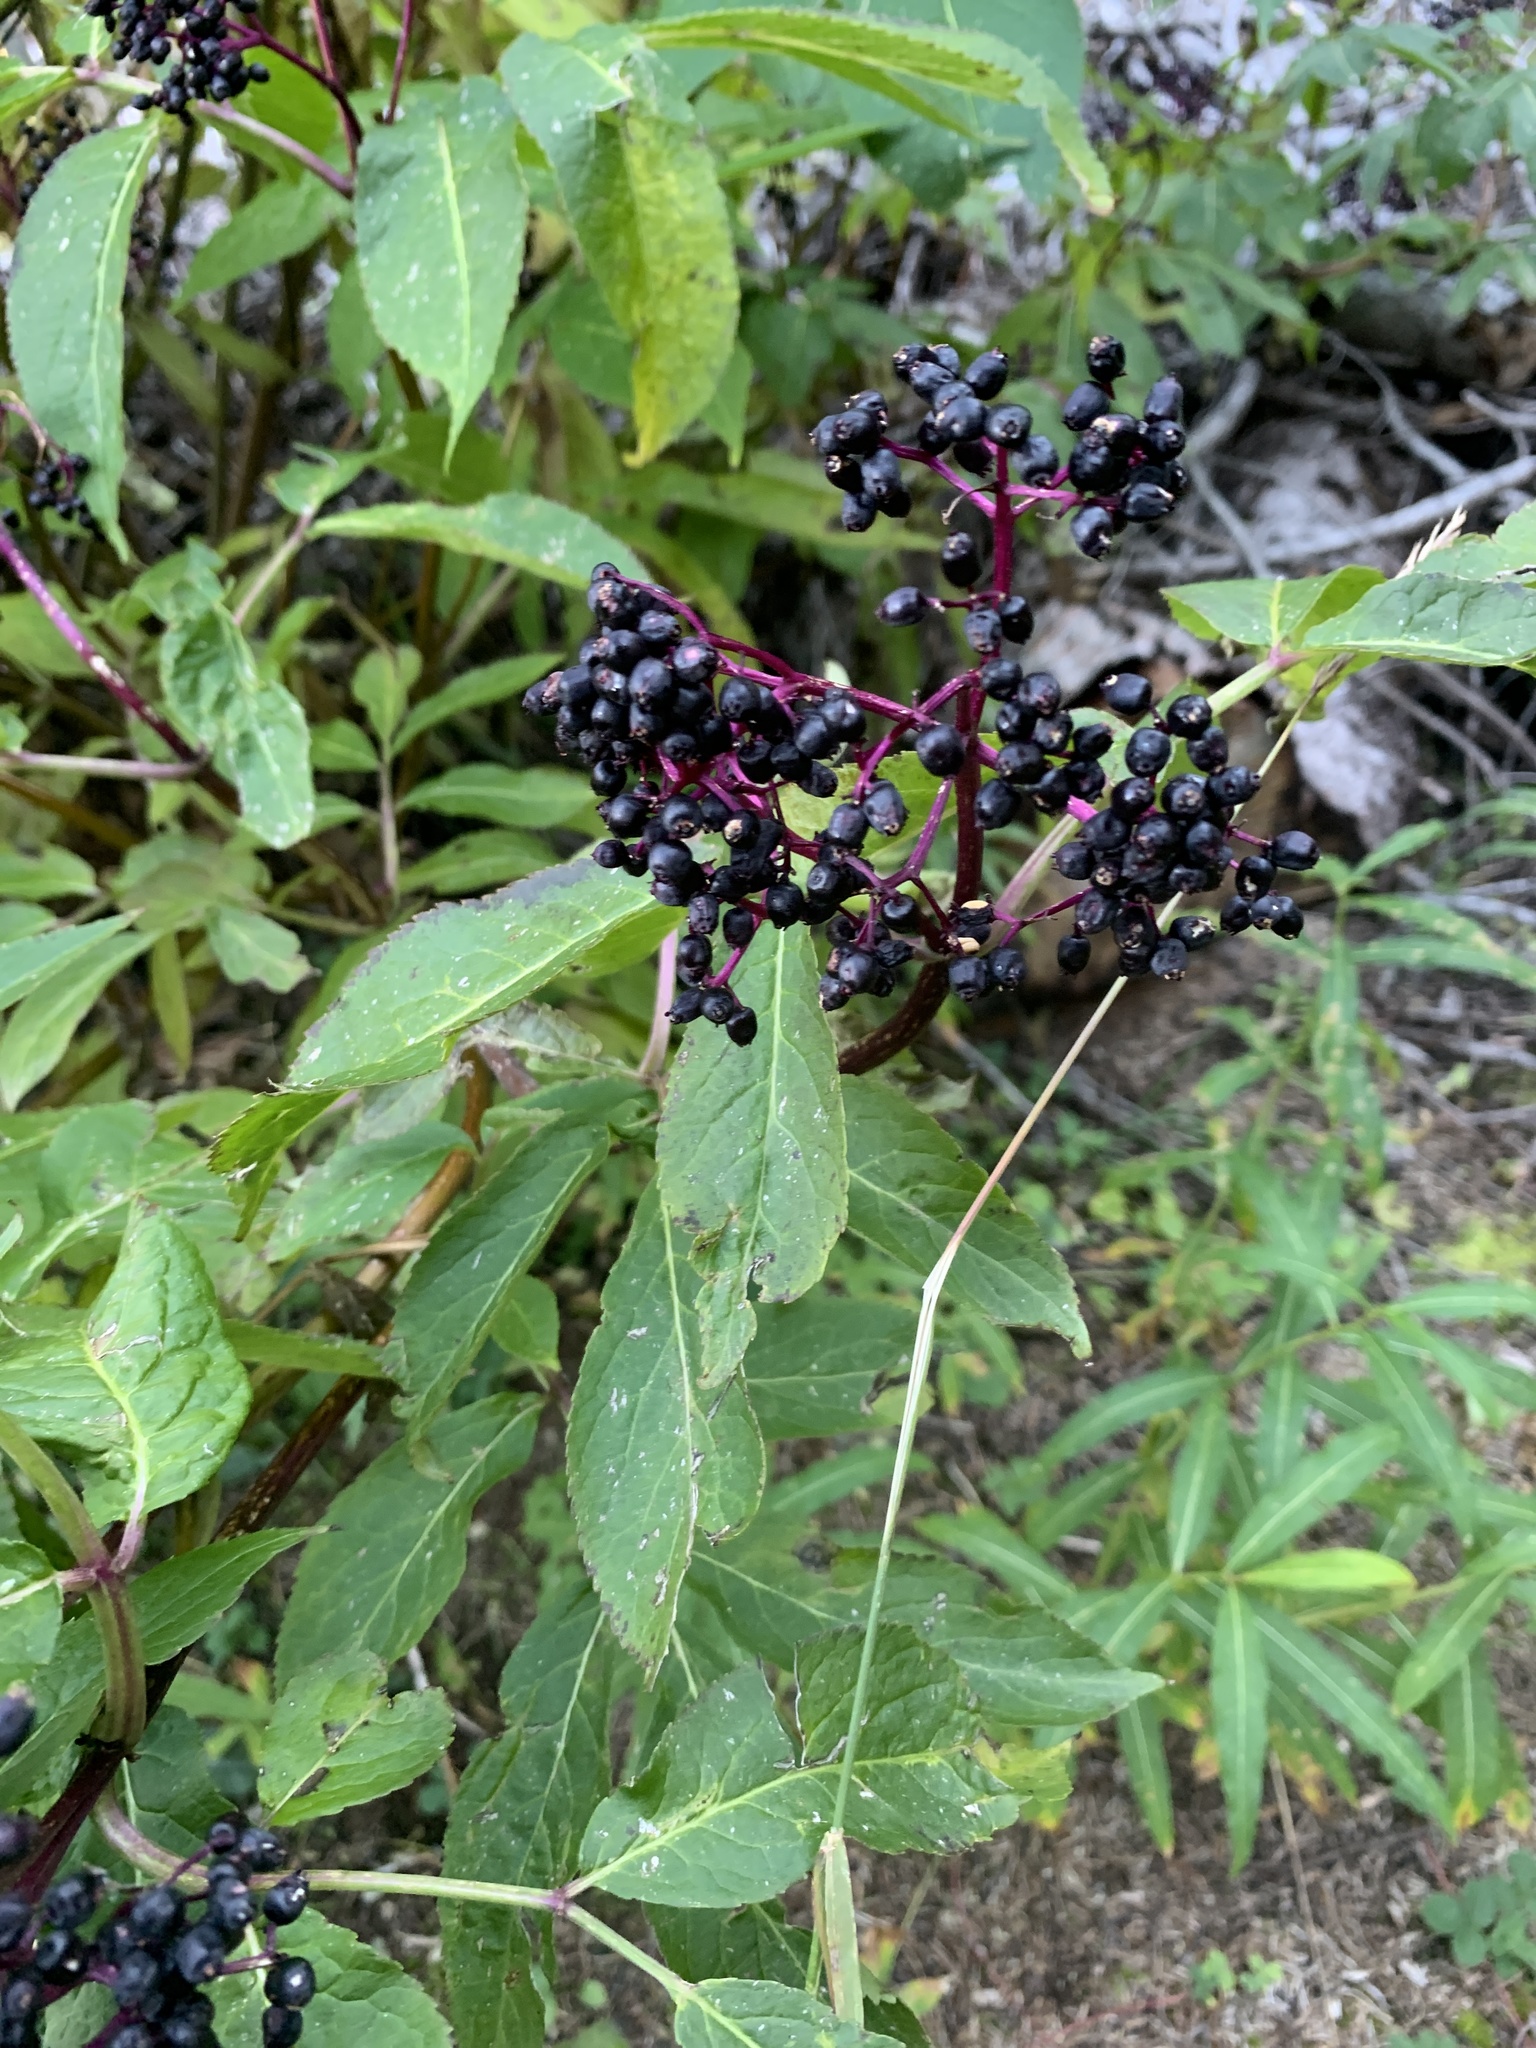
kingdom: Plantae
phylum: Tracheophyta
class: Magnoliopsida
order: Dipsacales
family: Viburnaceae
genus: Sambucus
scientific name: Sambucus racemosa
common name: Red-berried elder
